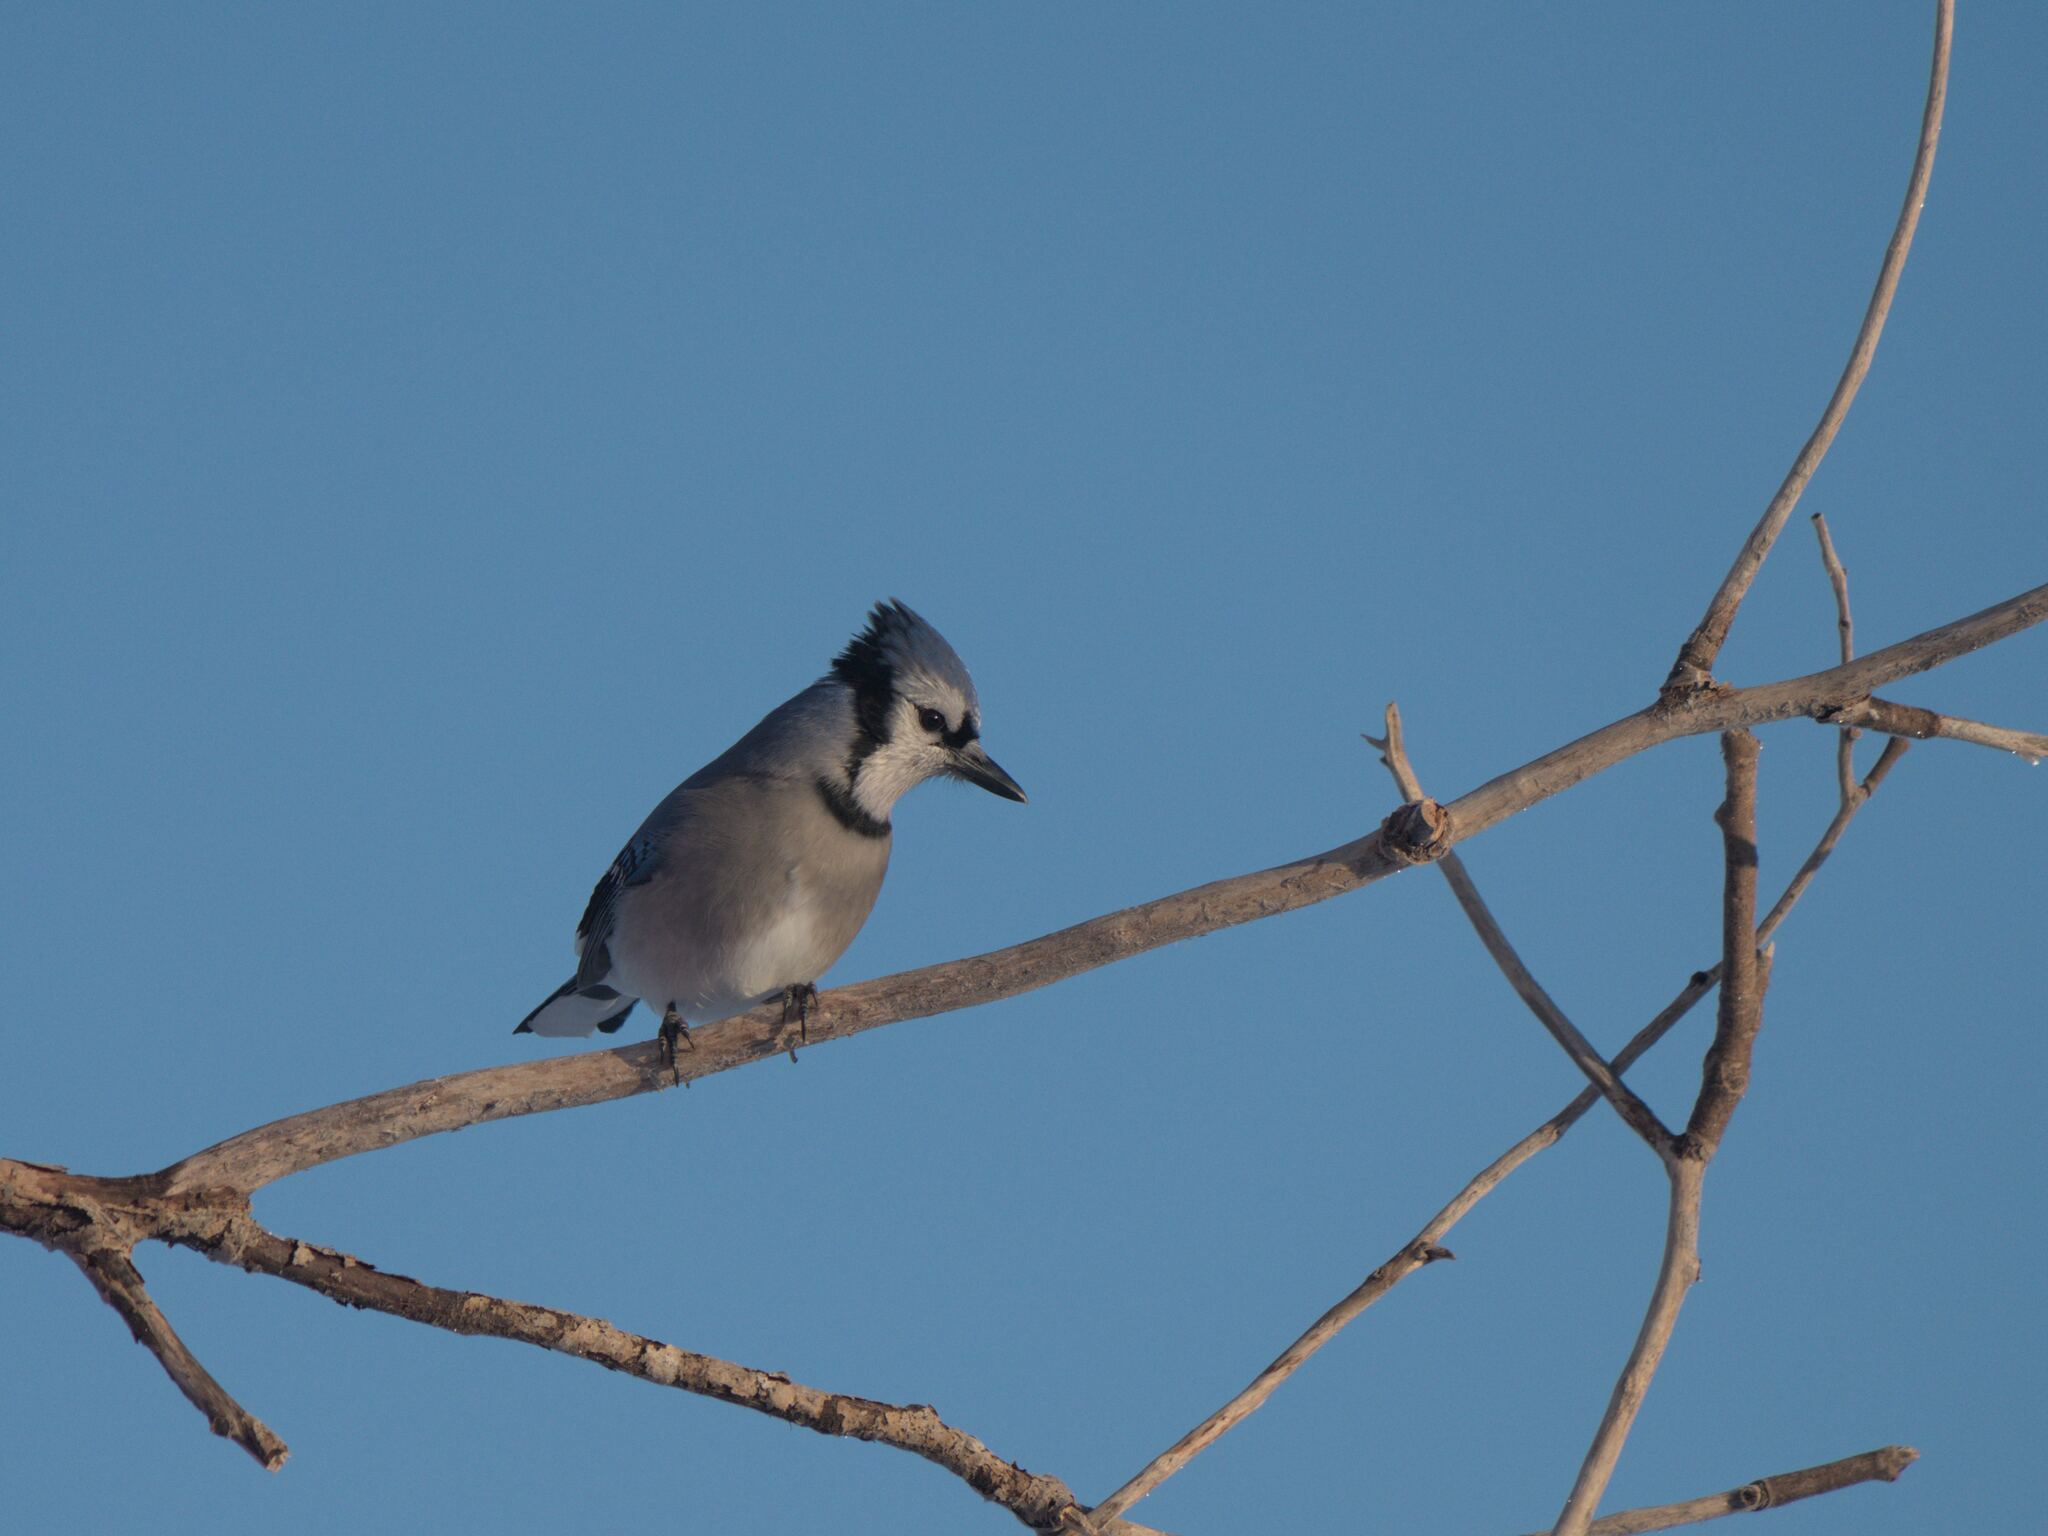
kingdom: Animalia
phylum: Chordata
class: Aves
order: Passeriformes
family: Corvidae
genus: Cyanocitta
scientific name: Cyanocitta cristata
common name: Blue jay
